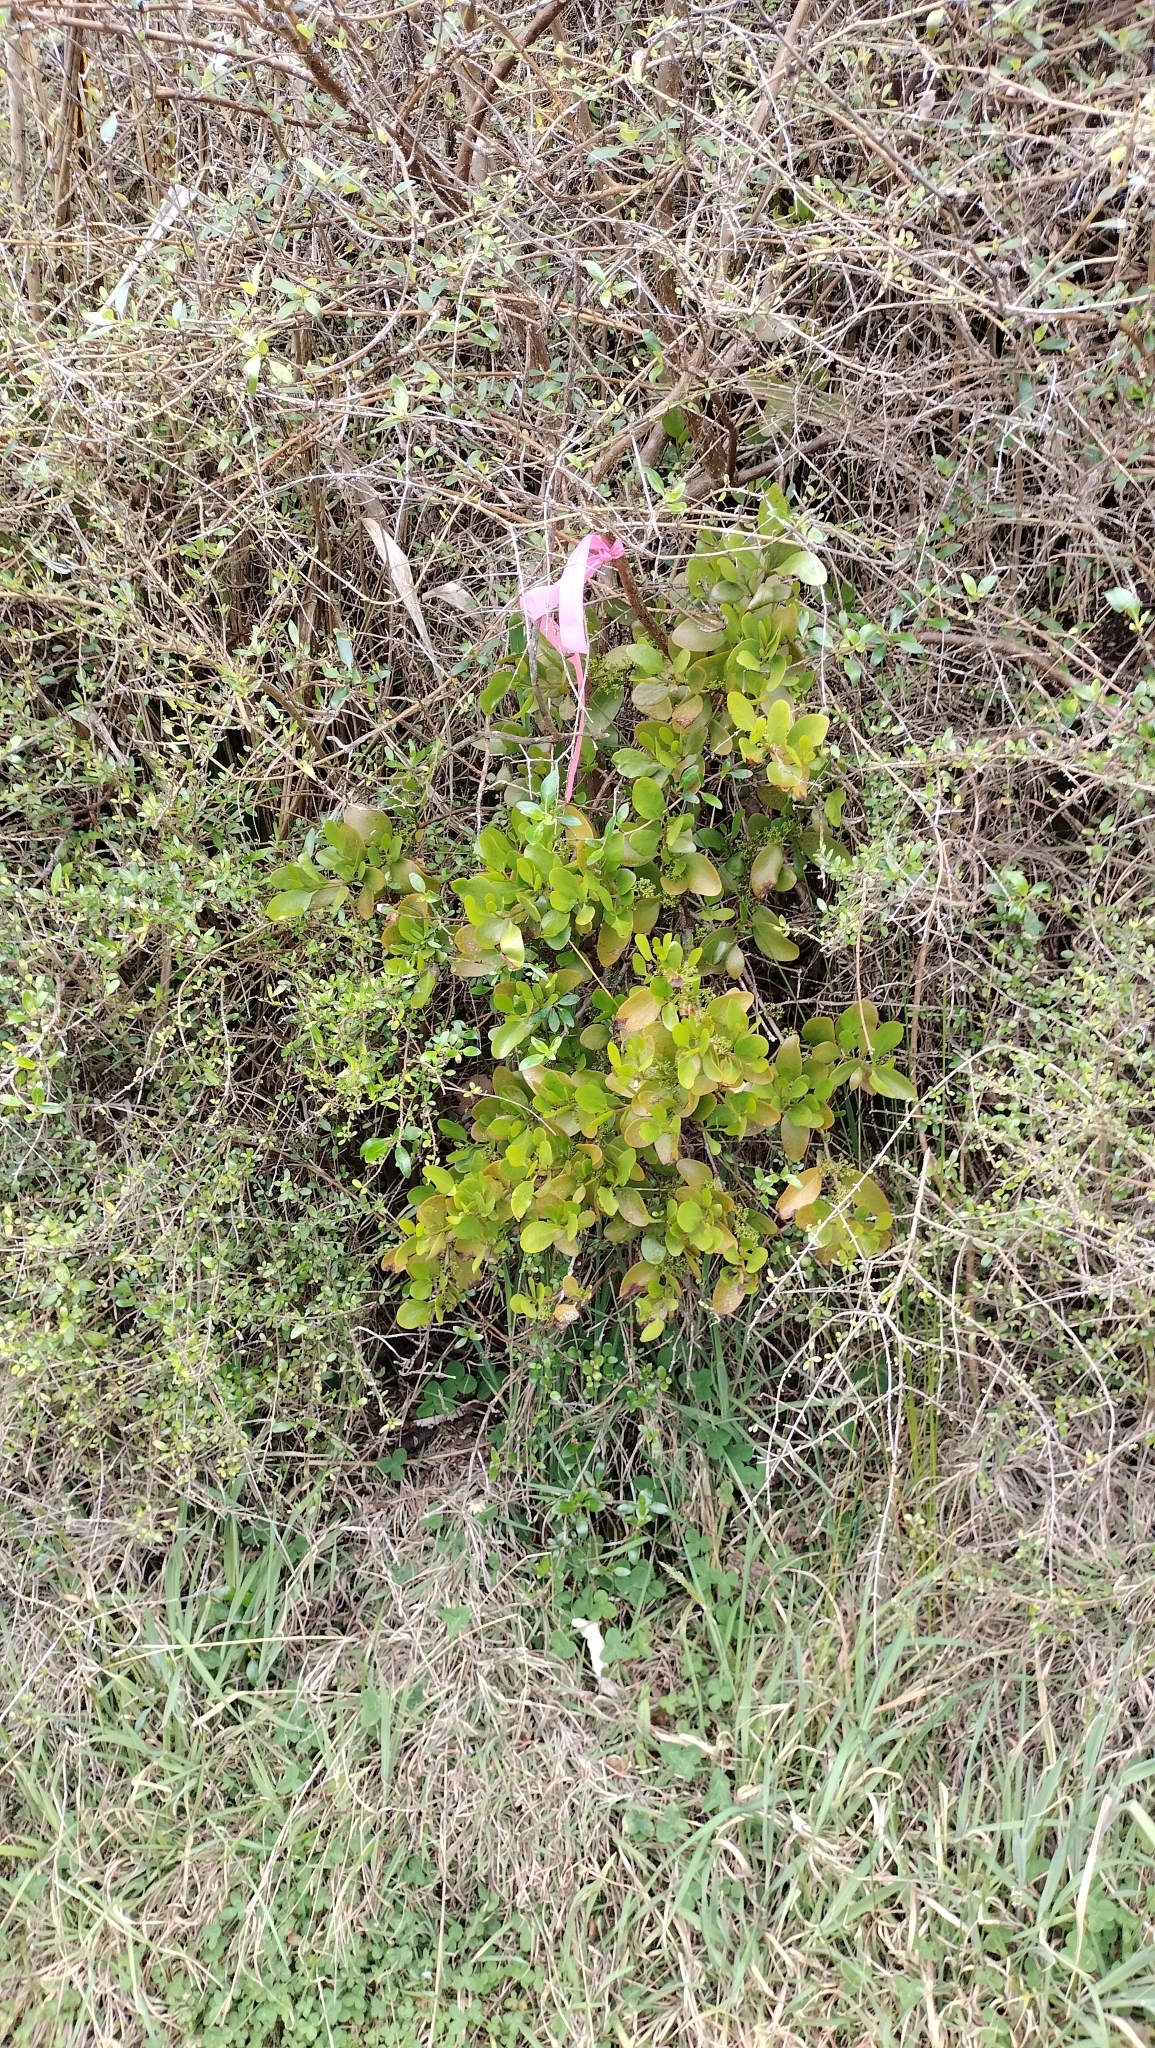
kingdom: Plantae
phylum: Tracheophyta
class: Magnoliopsida
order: Santalales
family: Loranthaceae
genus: Ileostylus
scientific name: Ileostylus micranthus
